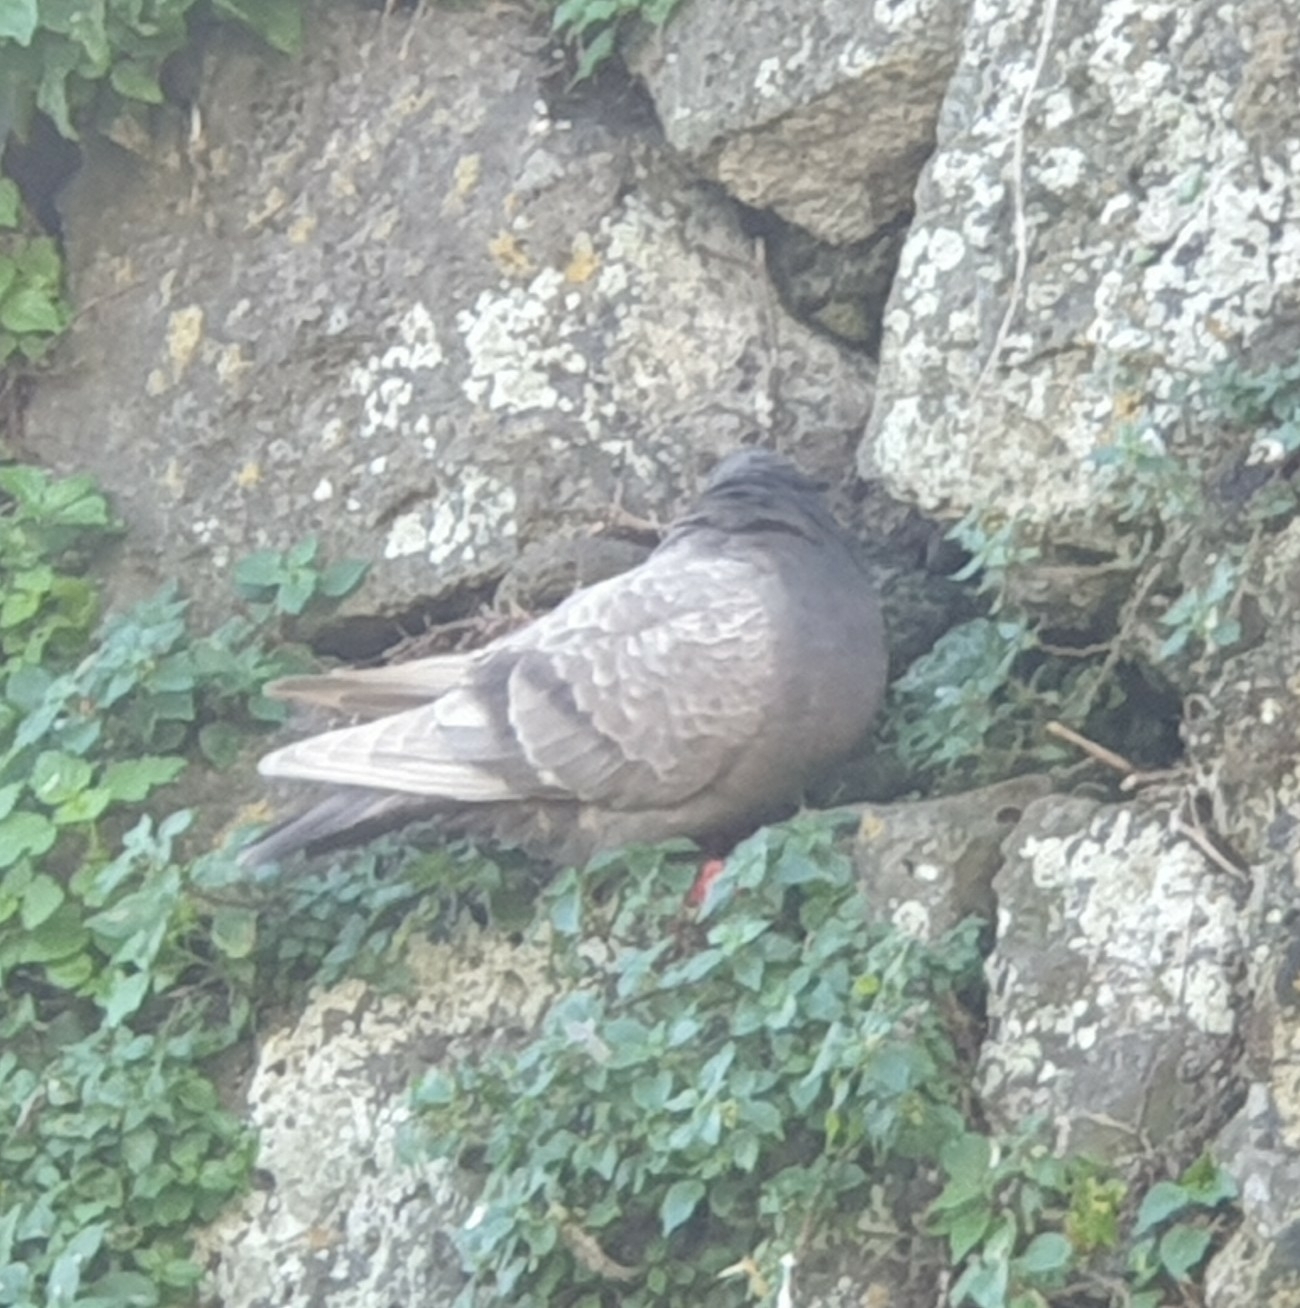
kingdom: Animalia
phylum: Chordata
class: Aves
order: Columbiformes
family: Columbidae
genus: Columba
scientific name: Columba livia
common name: Rock pigeon
